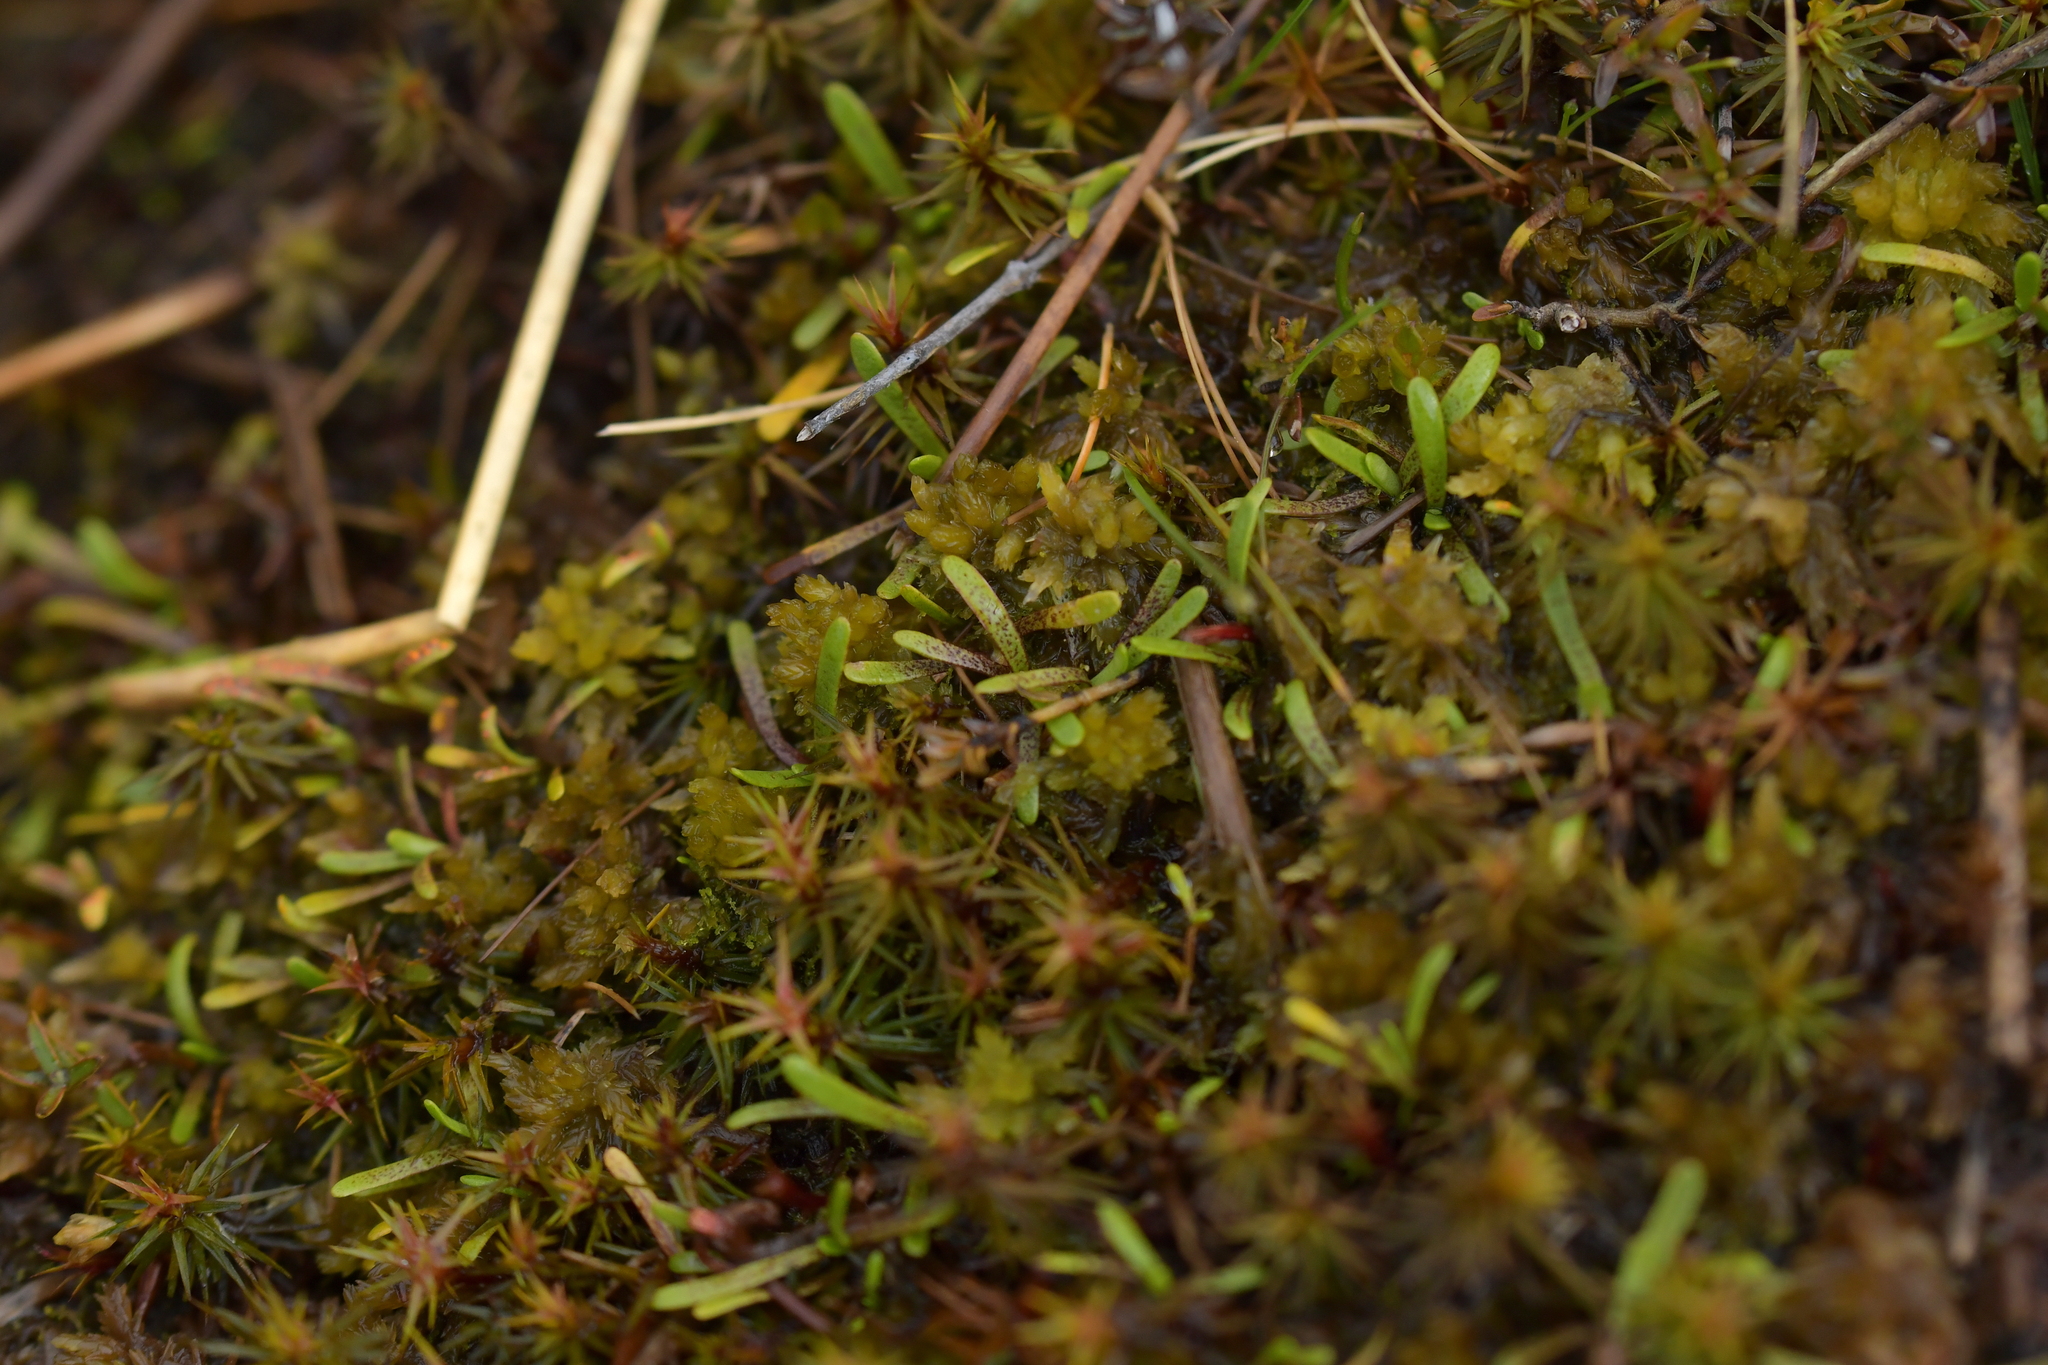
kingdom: Plantae
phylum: Tracheophyta
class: Magnoliopsida
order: Asterales
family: Asteraceae
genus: Abrotanella
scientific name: Abrotanella caespitosa
